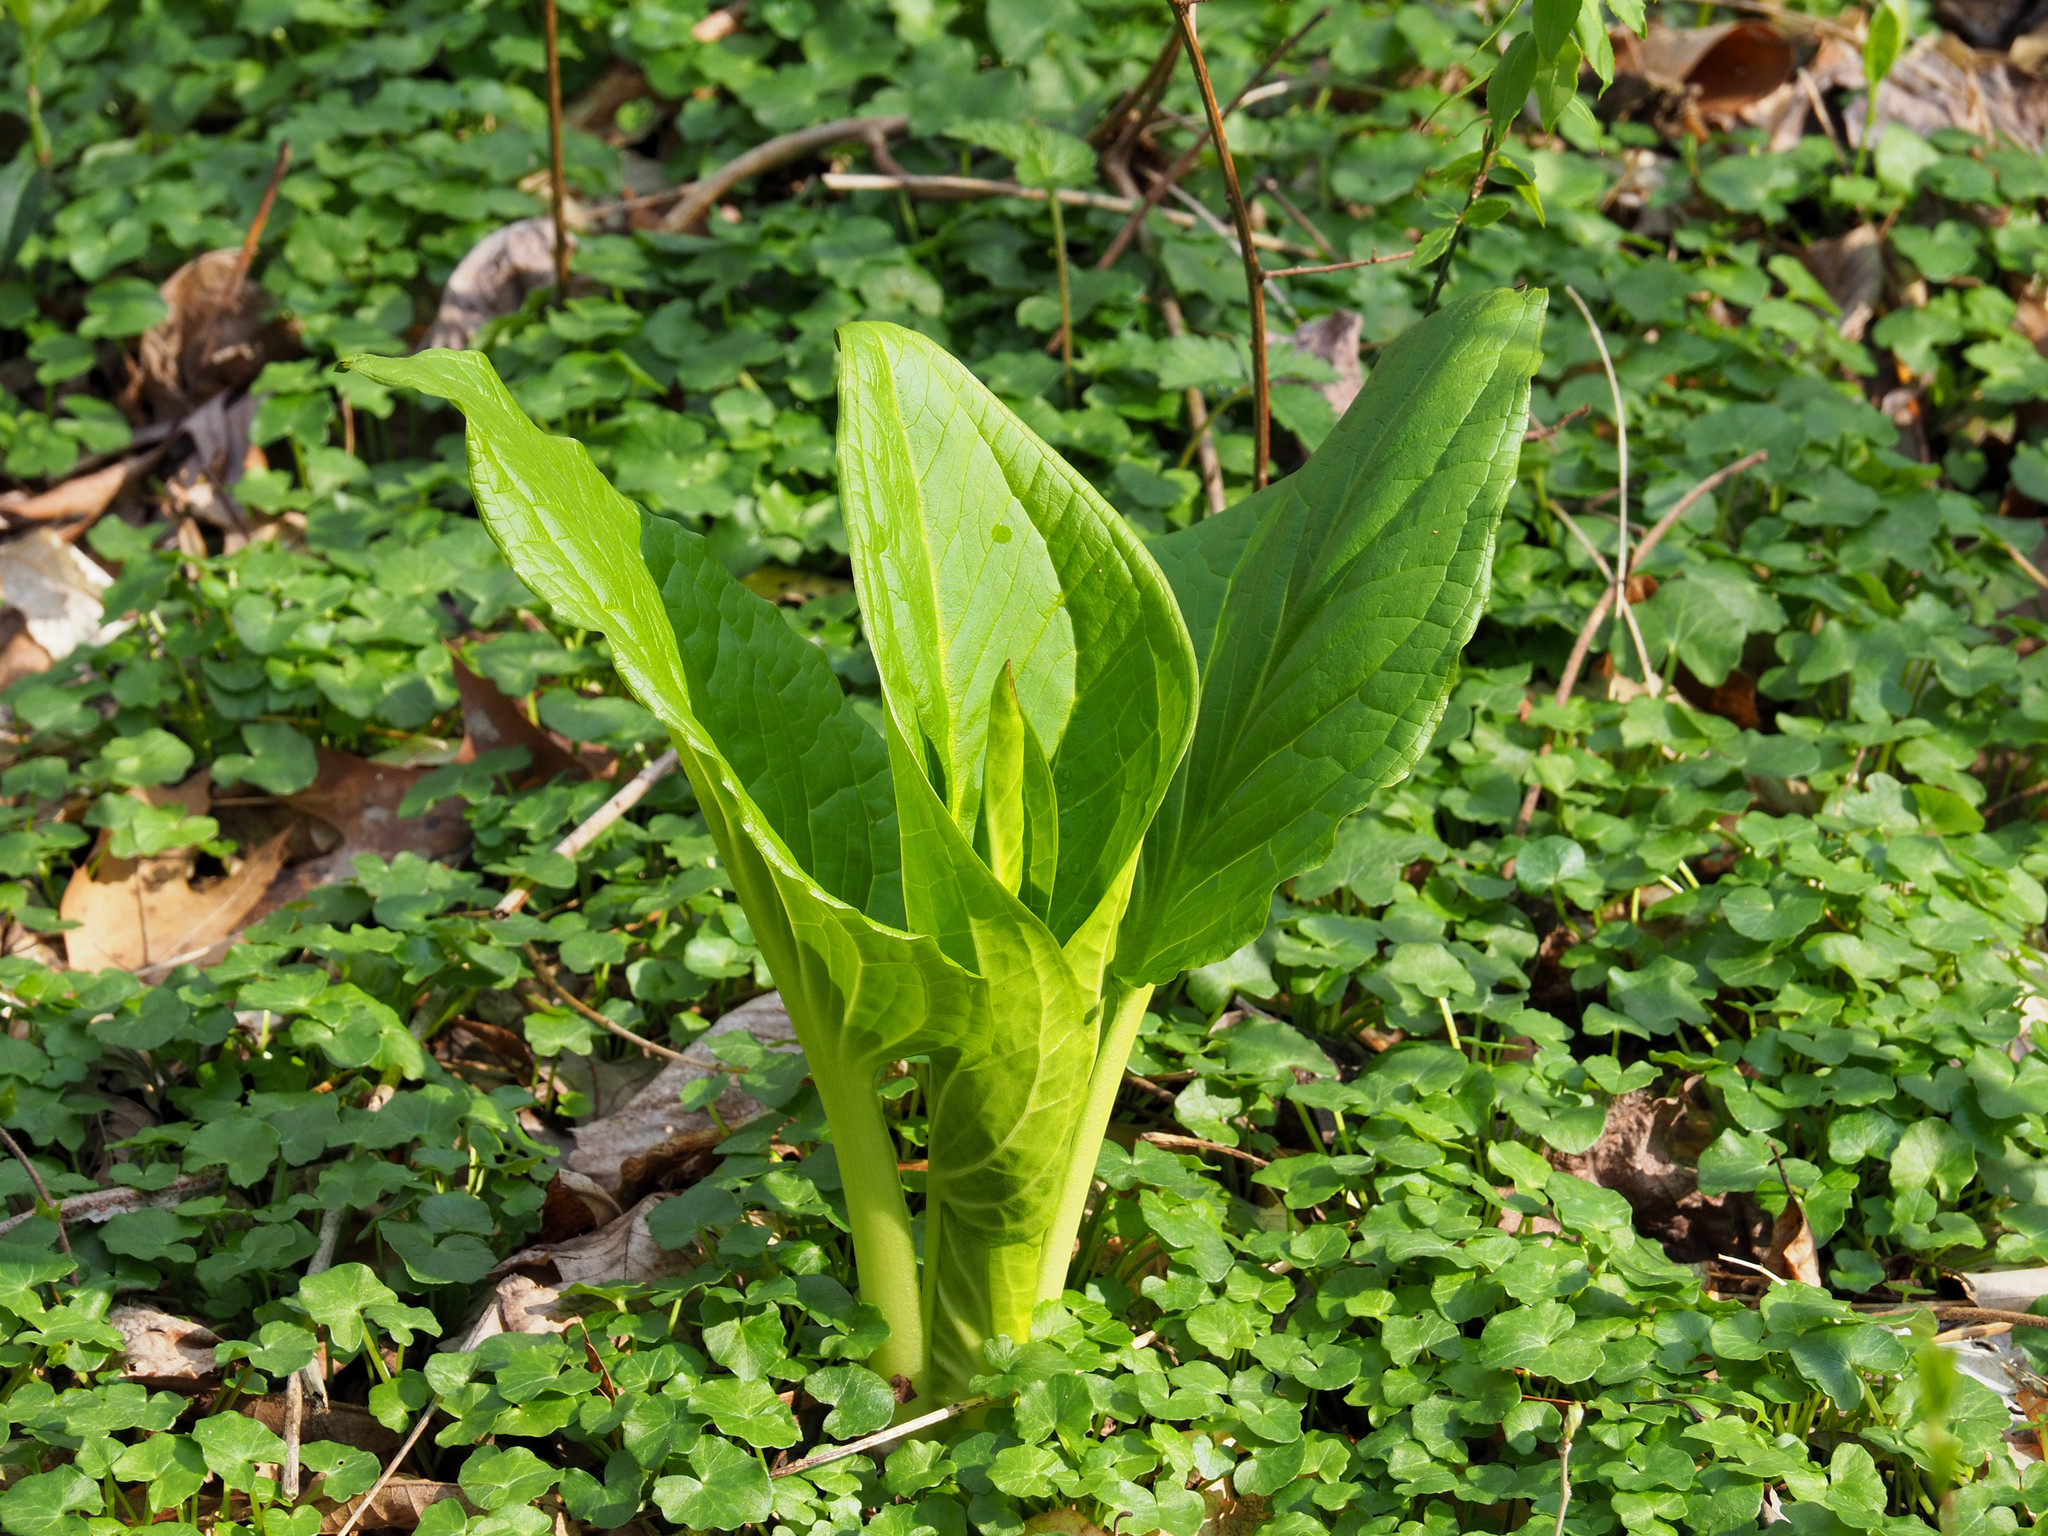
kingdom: Plantae
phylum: Tracheophyta
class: Liliopsida
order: Alismatales
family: Araceae
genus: Symplocarpus
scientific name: Symplocarpus foetidus
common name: Eastern skunk cabbage
